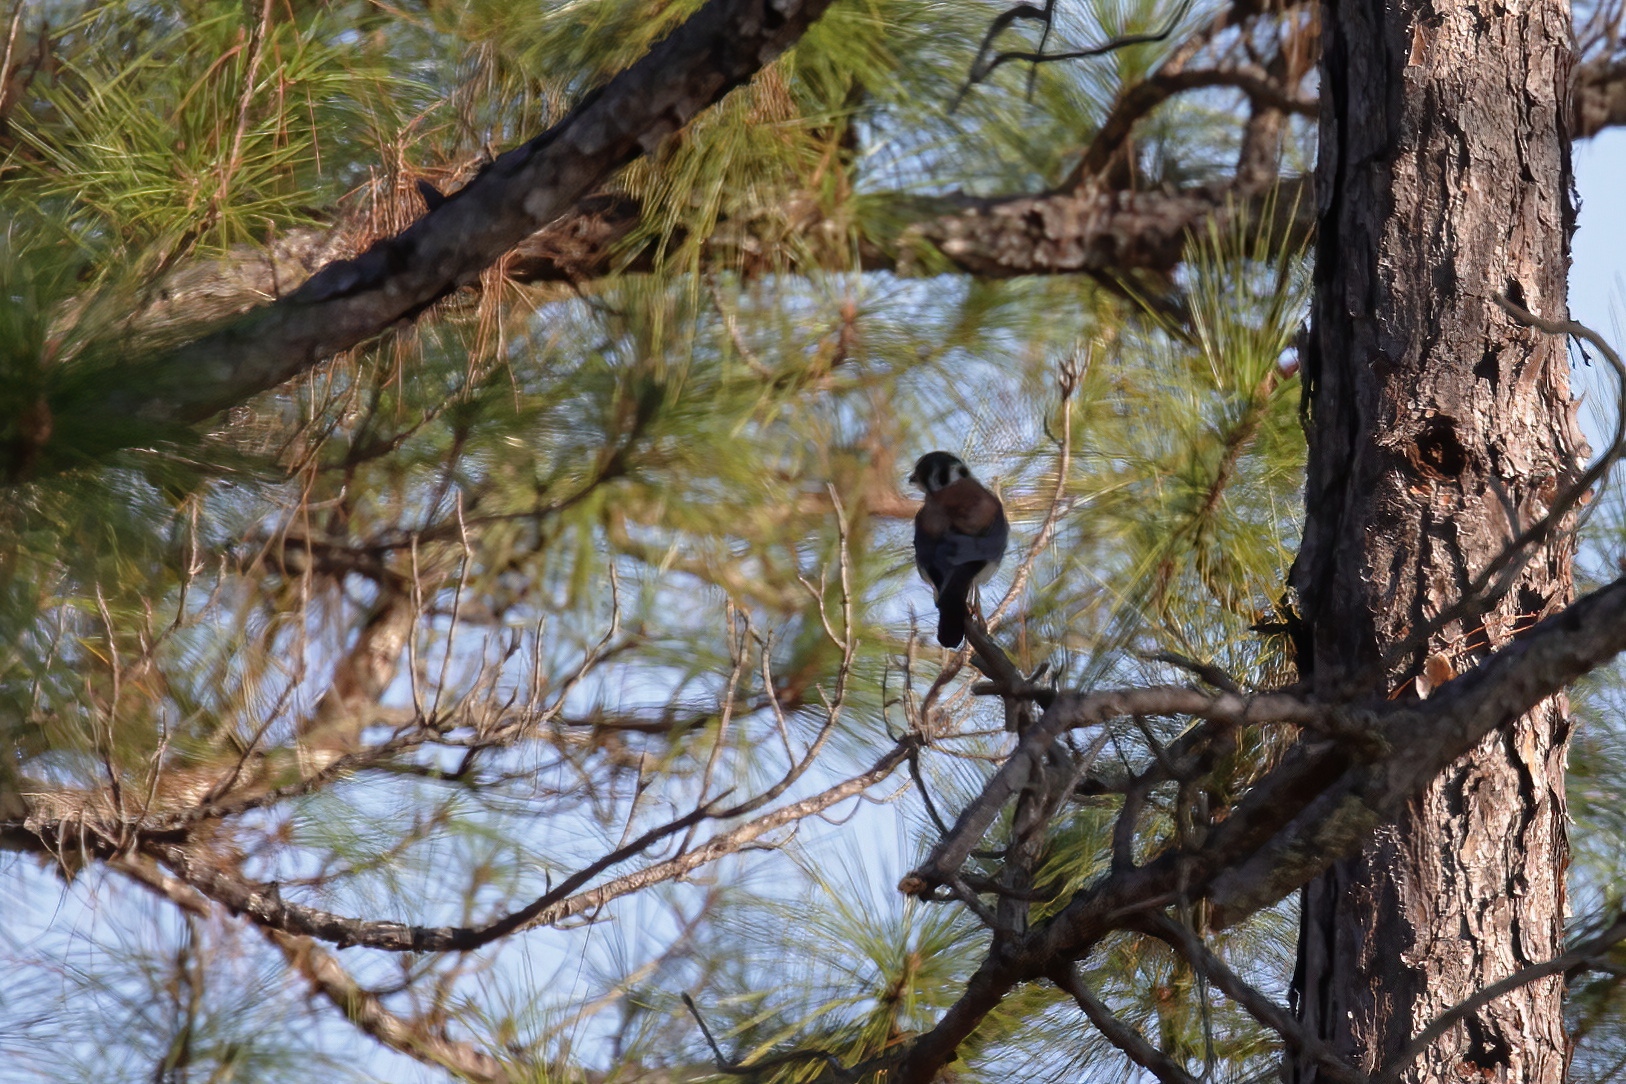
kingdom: Animalia
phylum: Chordata
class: Aves
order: Falconiformes
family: Falconidae
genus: Falco
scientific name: Falco sparverius
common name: American kestrel
